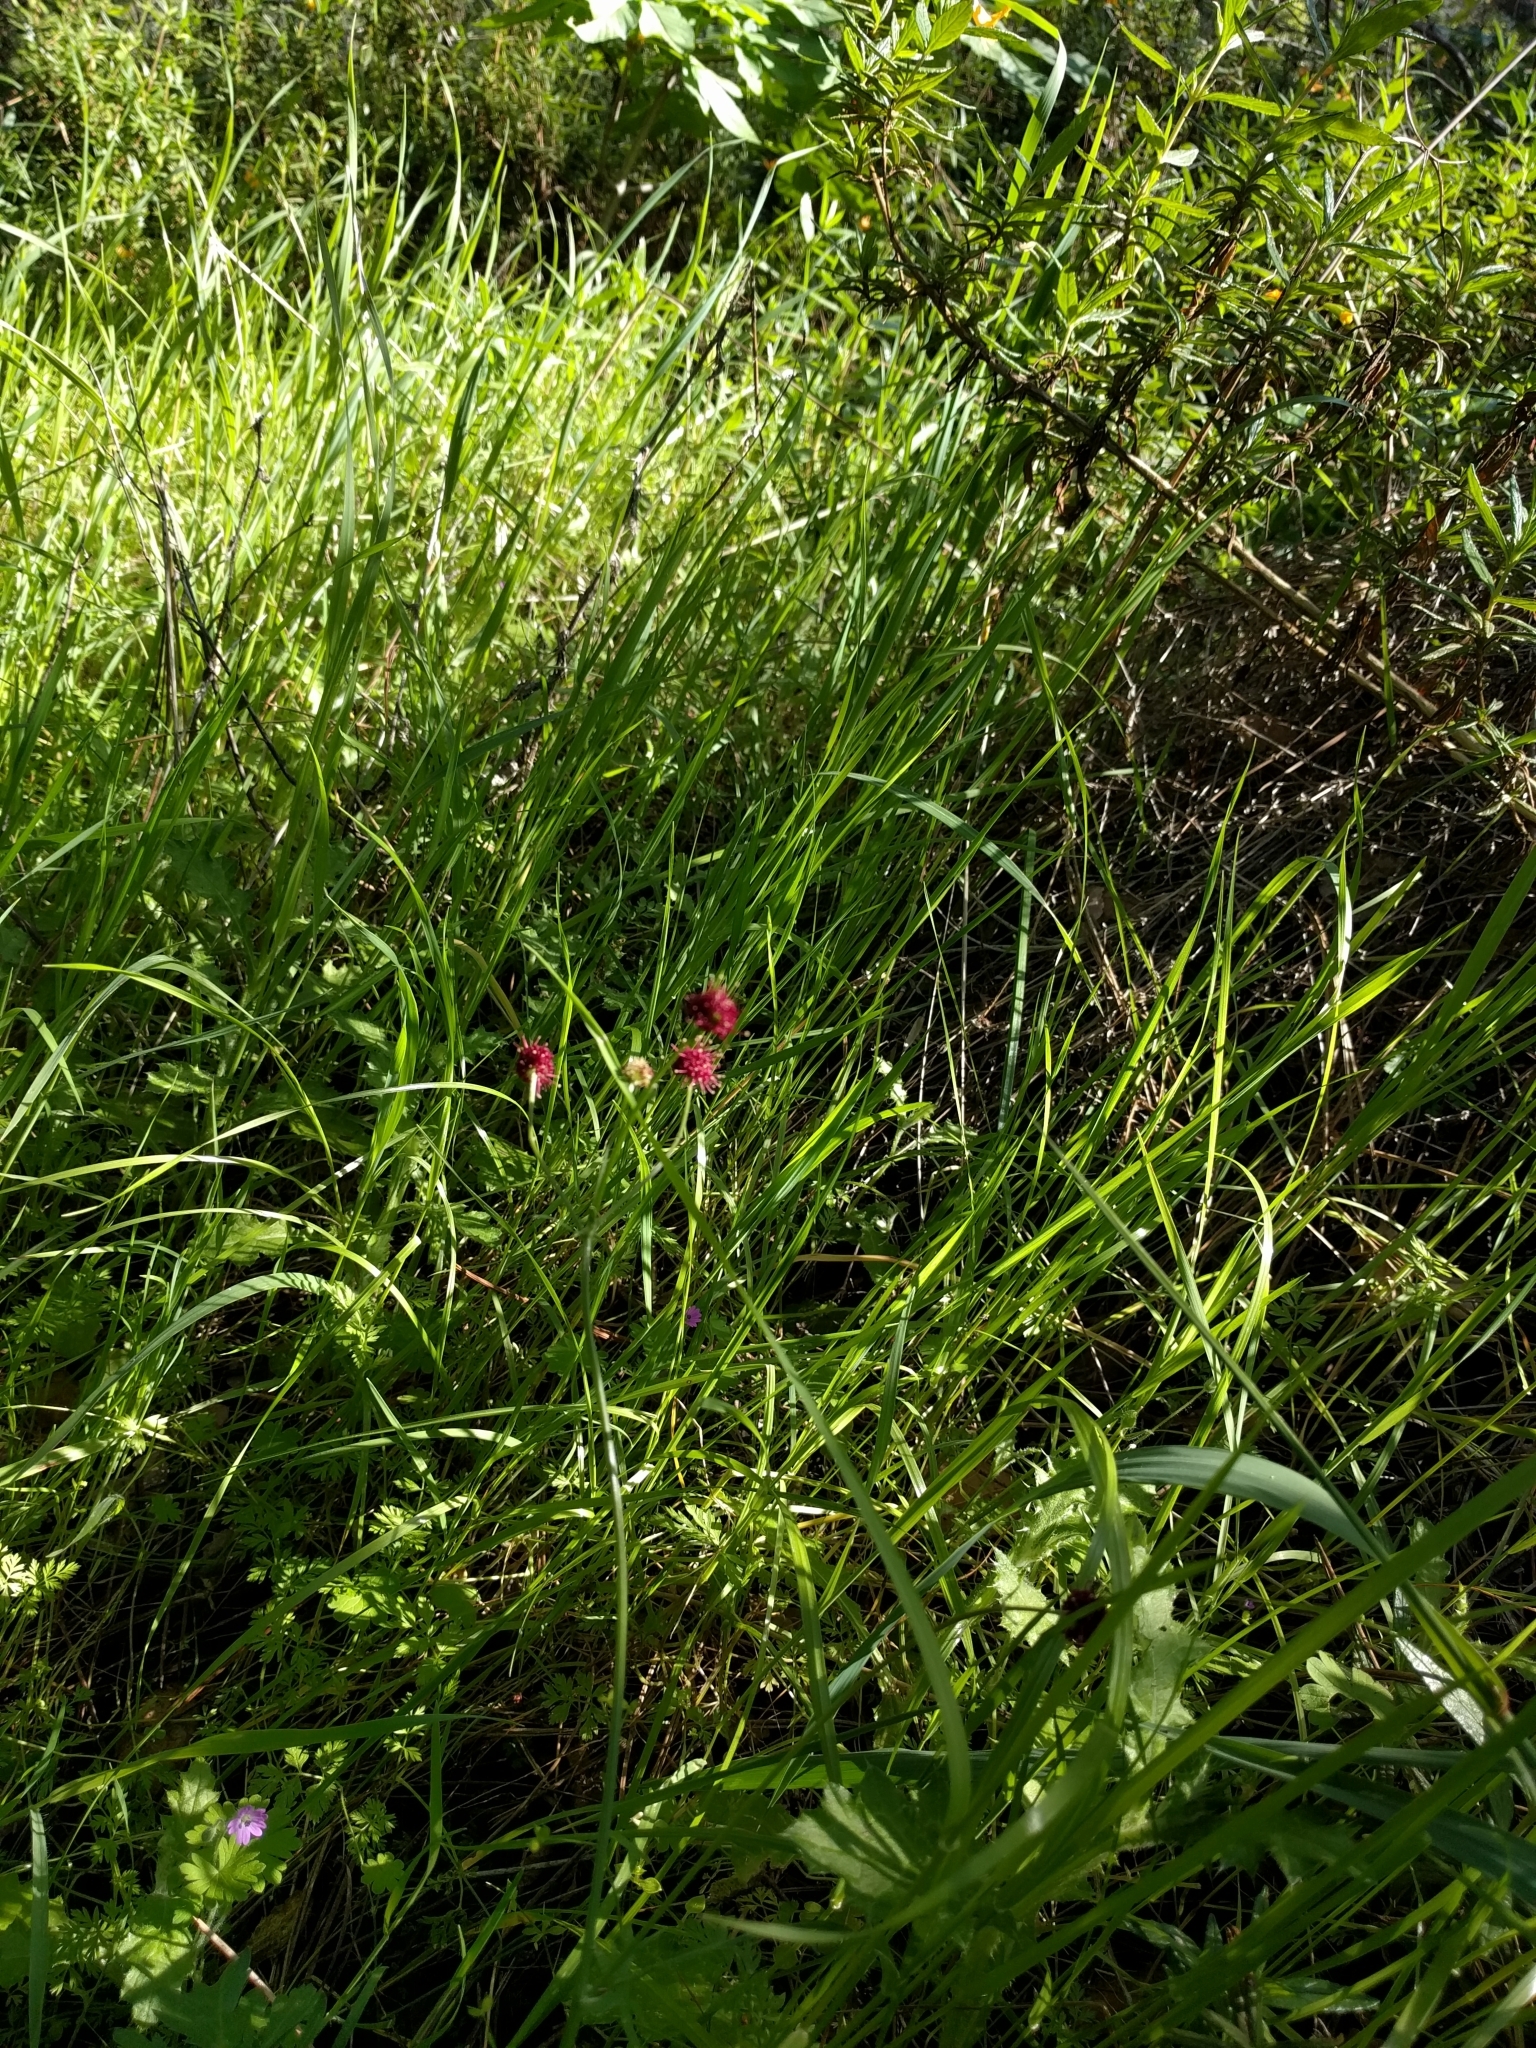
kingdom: Plantae
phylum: Tracheophyta
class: Magnoliopsida
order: Apiales
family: Apiaceae
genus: Sanicula
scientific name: Sanicula bipinnatifida
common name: Shoe-buttons
